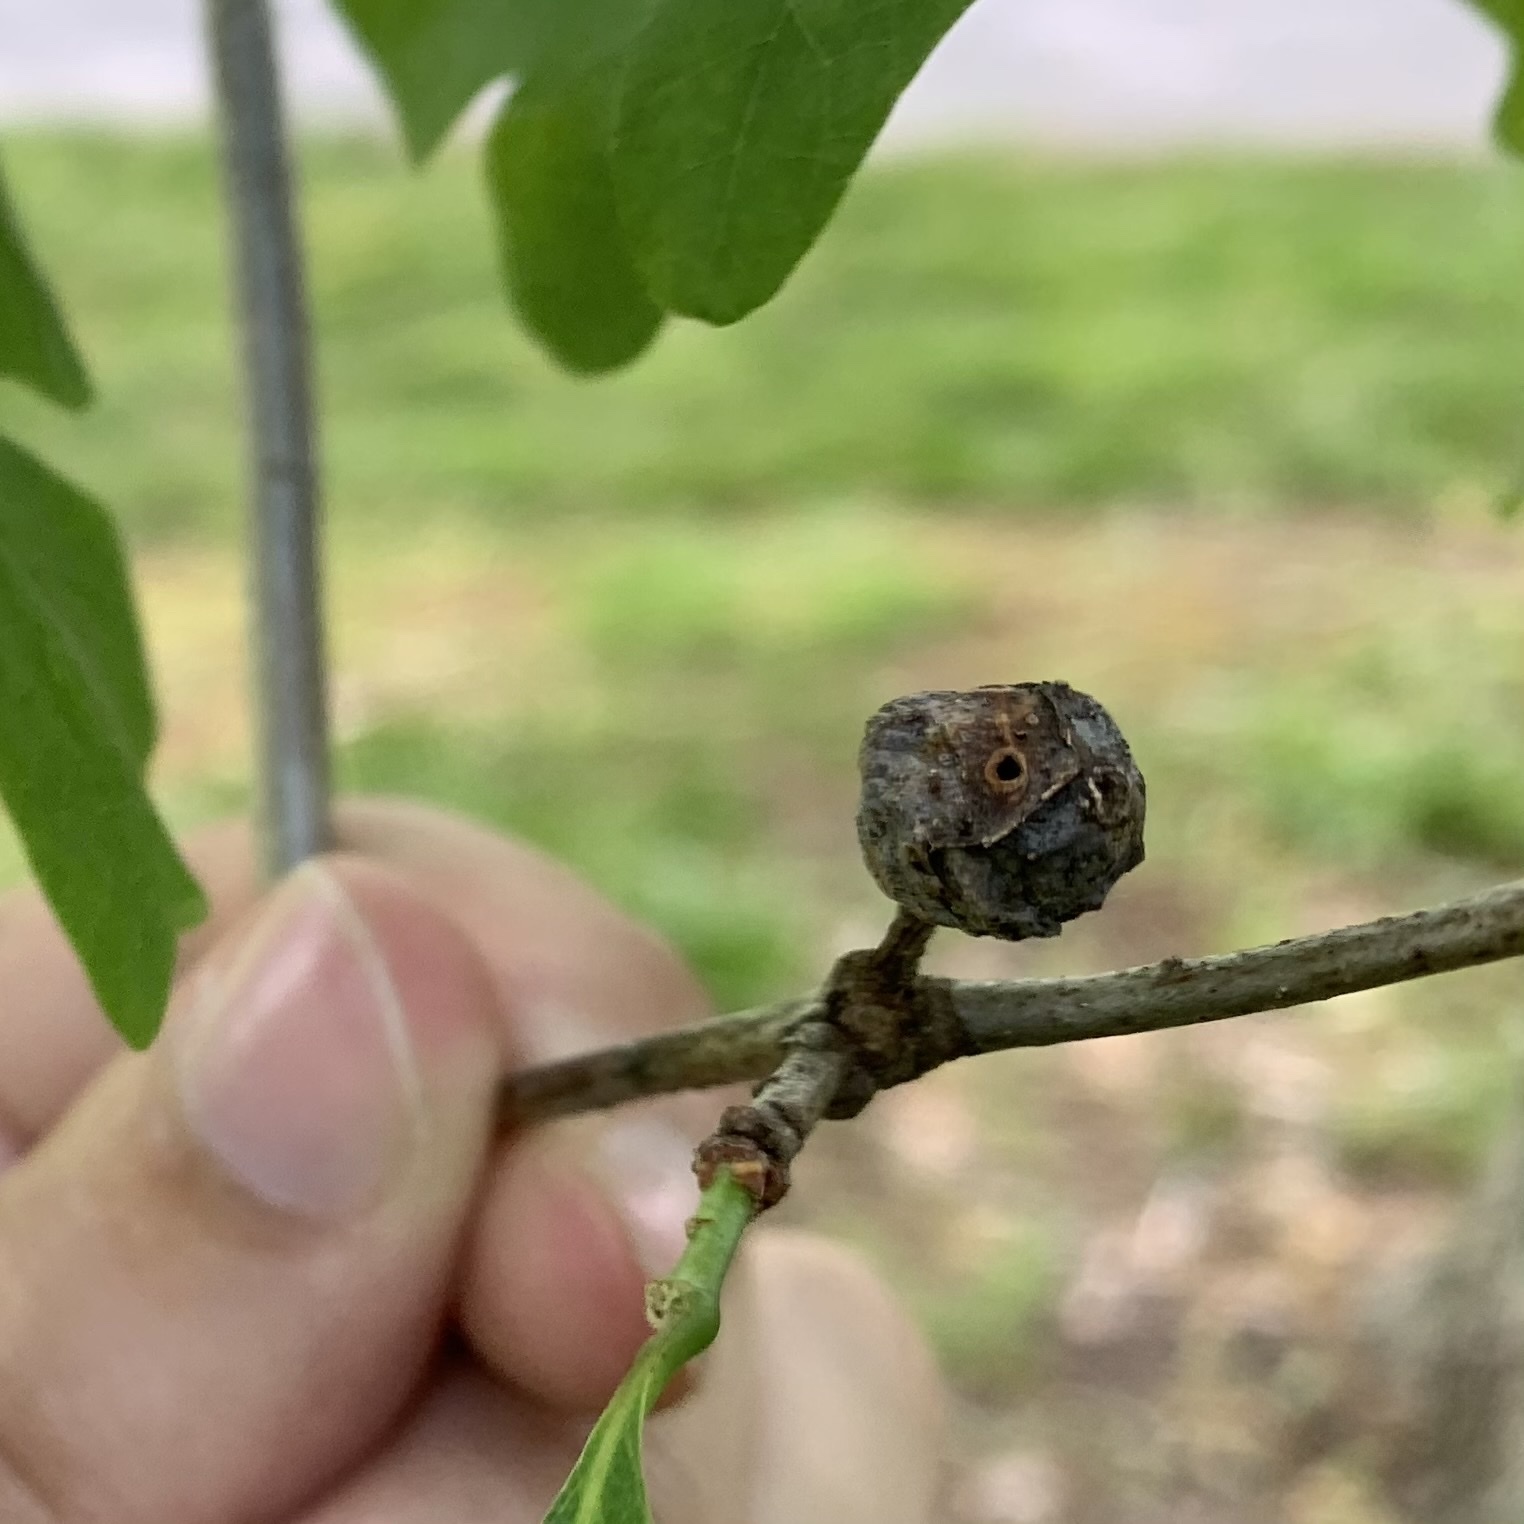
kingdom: Animalia
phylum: Arthropoda
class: Insecta
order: Hymenoptera
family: Cynipidae
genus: Andricus
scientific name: Andricus
